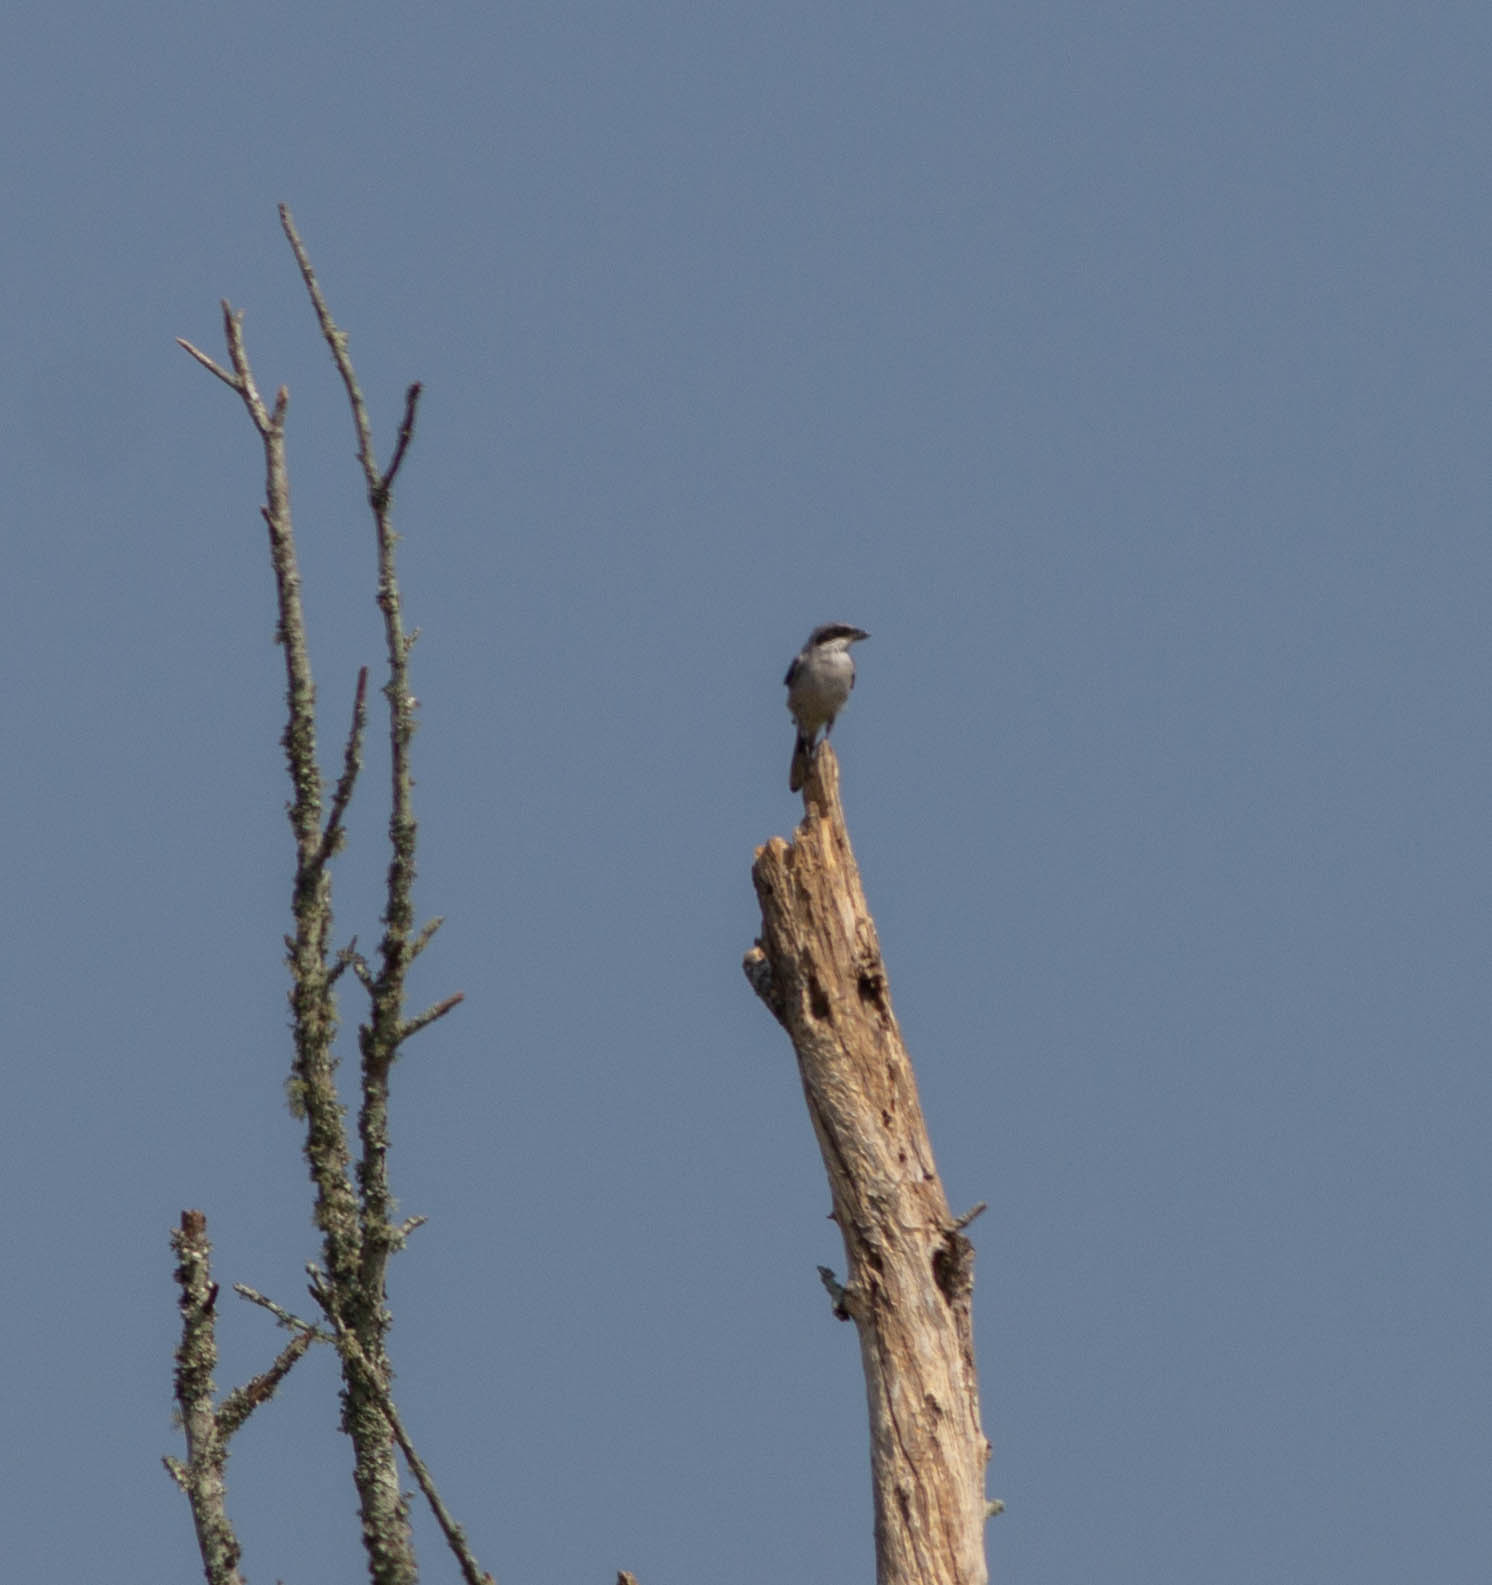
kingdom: Animalia
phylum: Chordata
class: Aves
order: Passeriformes
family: Laniidae
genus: Lanius
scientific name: Lanius ludovicianus
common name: Loggerhead shrike
